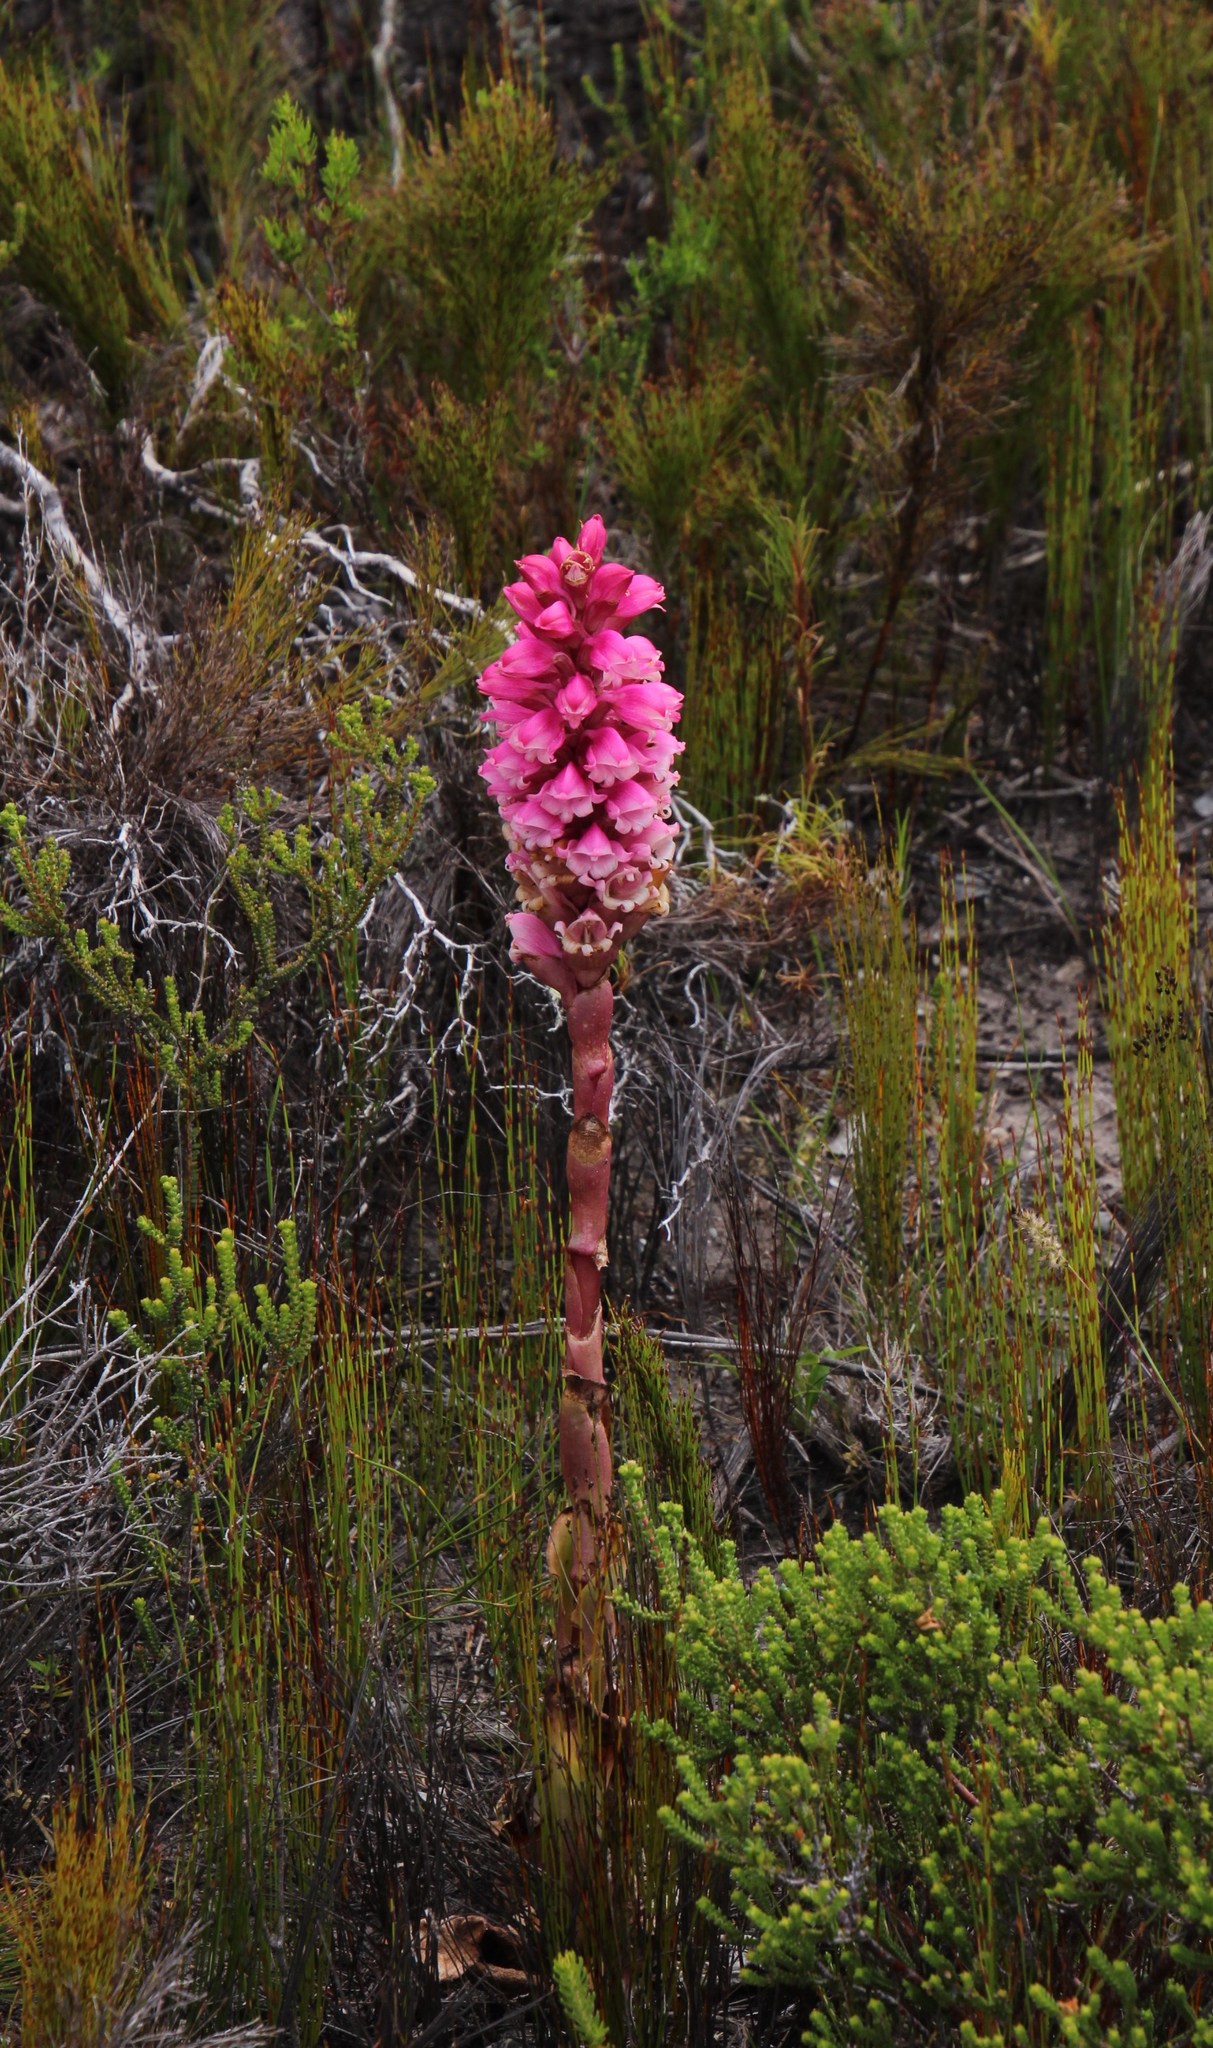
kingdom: Plantae
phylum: Tracheophyta
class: Liliopsida
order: Asparagales
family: Orchidaceae
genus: Satyrium
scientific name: Satyrium carneum
